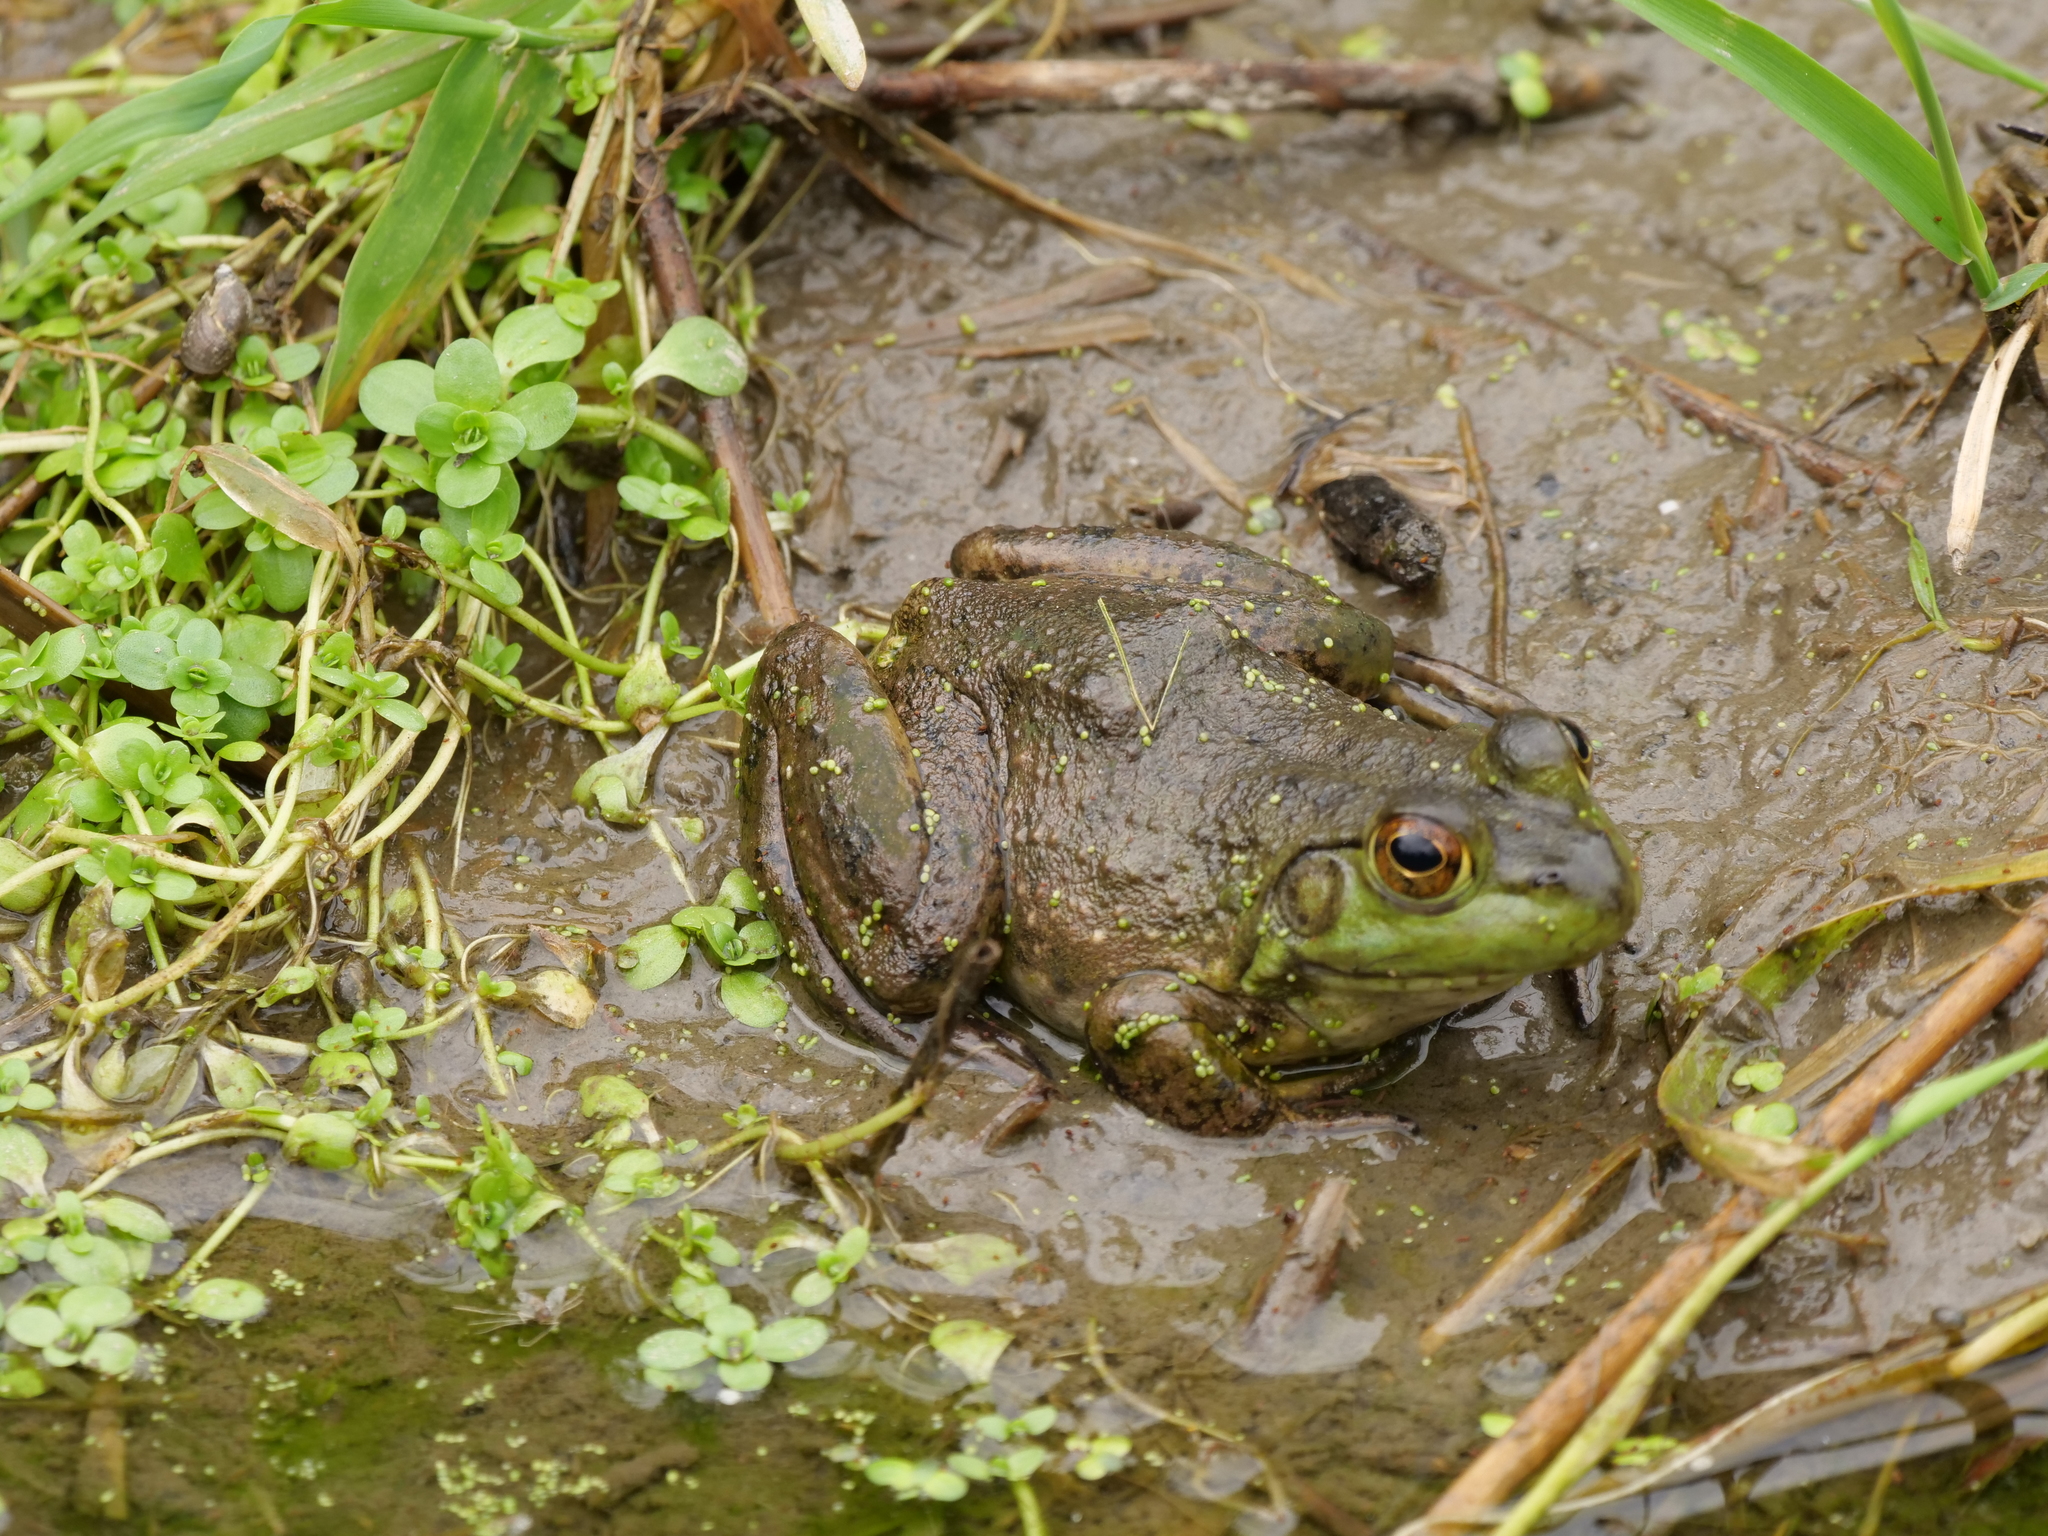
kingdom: Animalia
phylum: Chordata
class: Amphibia
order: Anura
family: Ranidae
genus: Lithobates
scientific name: Lithobates catesbeianus
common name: American bullfrog
